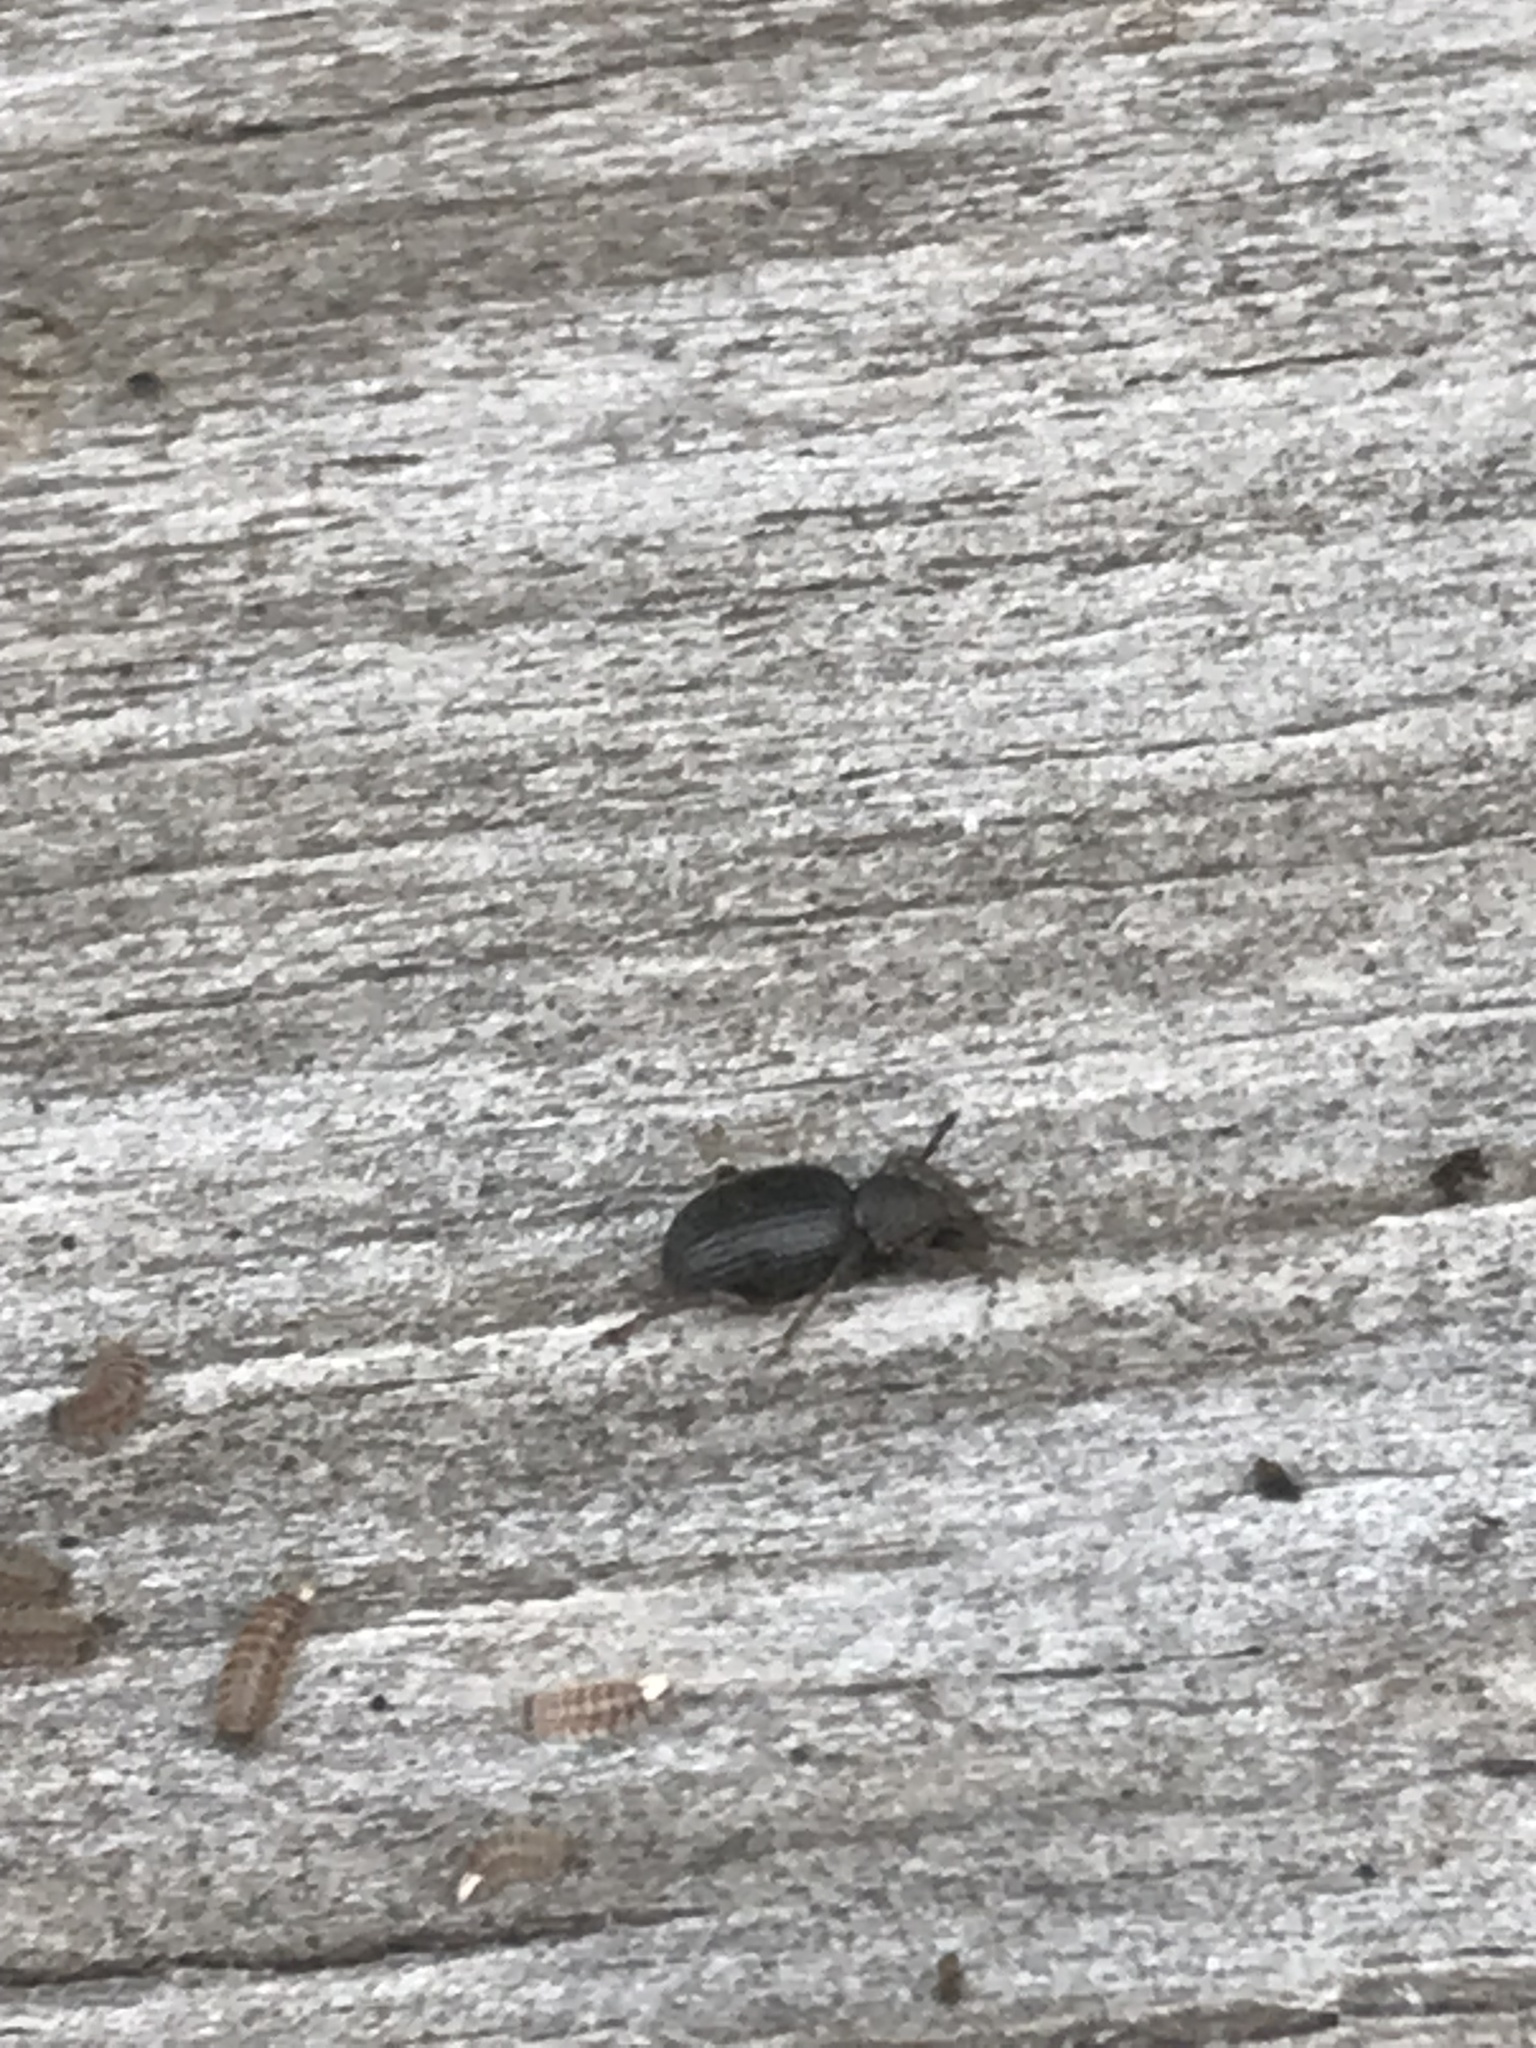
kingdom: Animalia
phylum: Arthropoda
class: Insecta
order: Coleoptera
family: Curculionidae
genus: Otiorhynchus
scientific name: Otiorhynchus ovatus
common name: Strawberry root weevil
